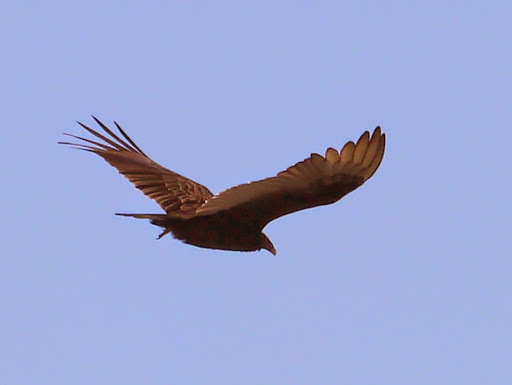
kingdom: Animalia
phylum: Chordata
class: Aves
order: Accipitriformes
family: Cathartidae
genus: Cathartes
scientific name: Cathartes aura
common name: Turkey vulture
